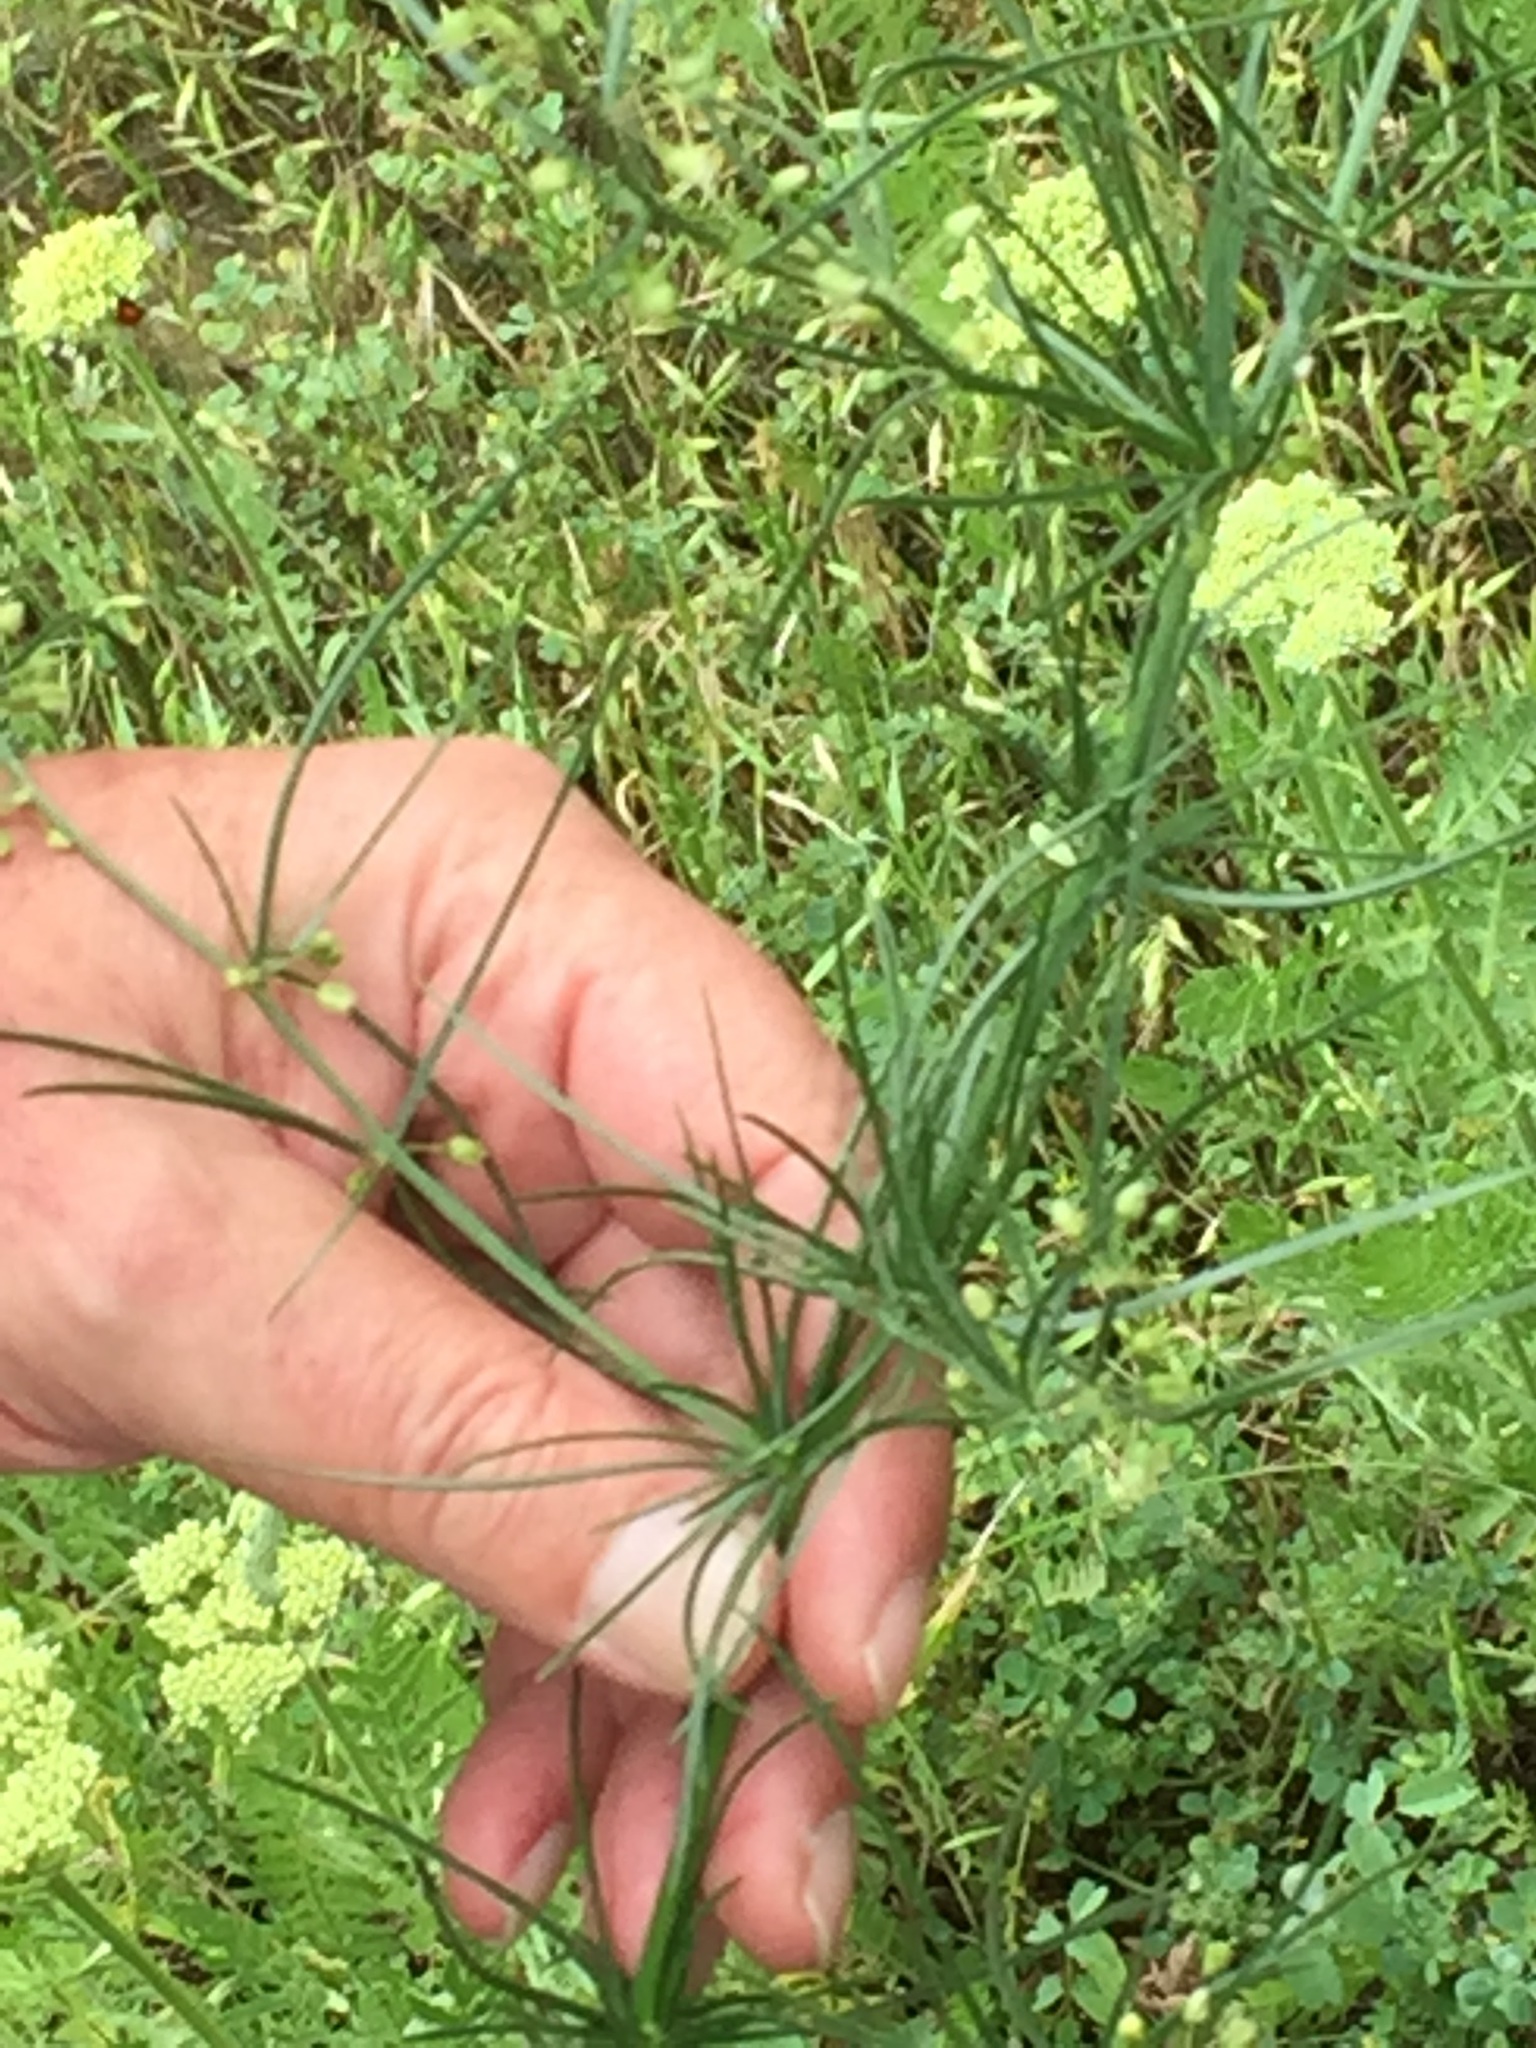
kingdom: Plantae
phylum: Tracheophyta
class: Liliopsida
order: Asparagales
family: Asparagaceae
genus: Asparagus
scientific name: Asparagus verticillatus
